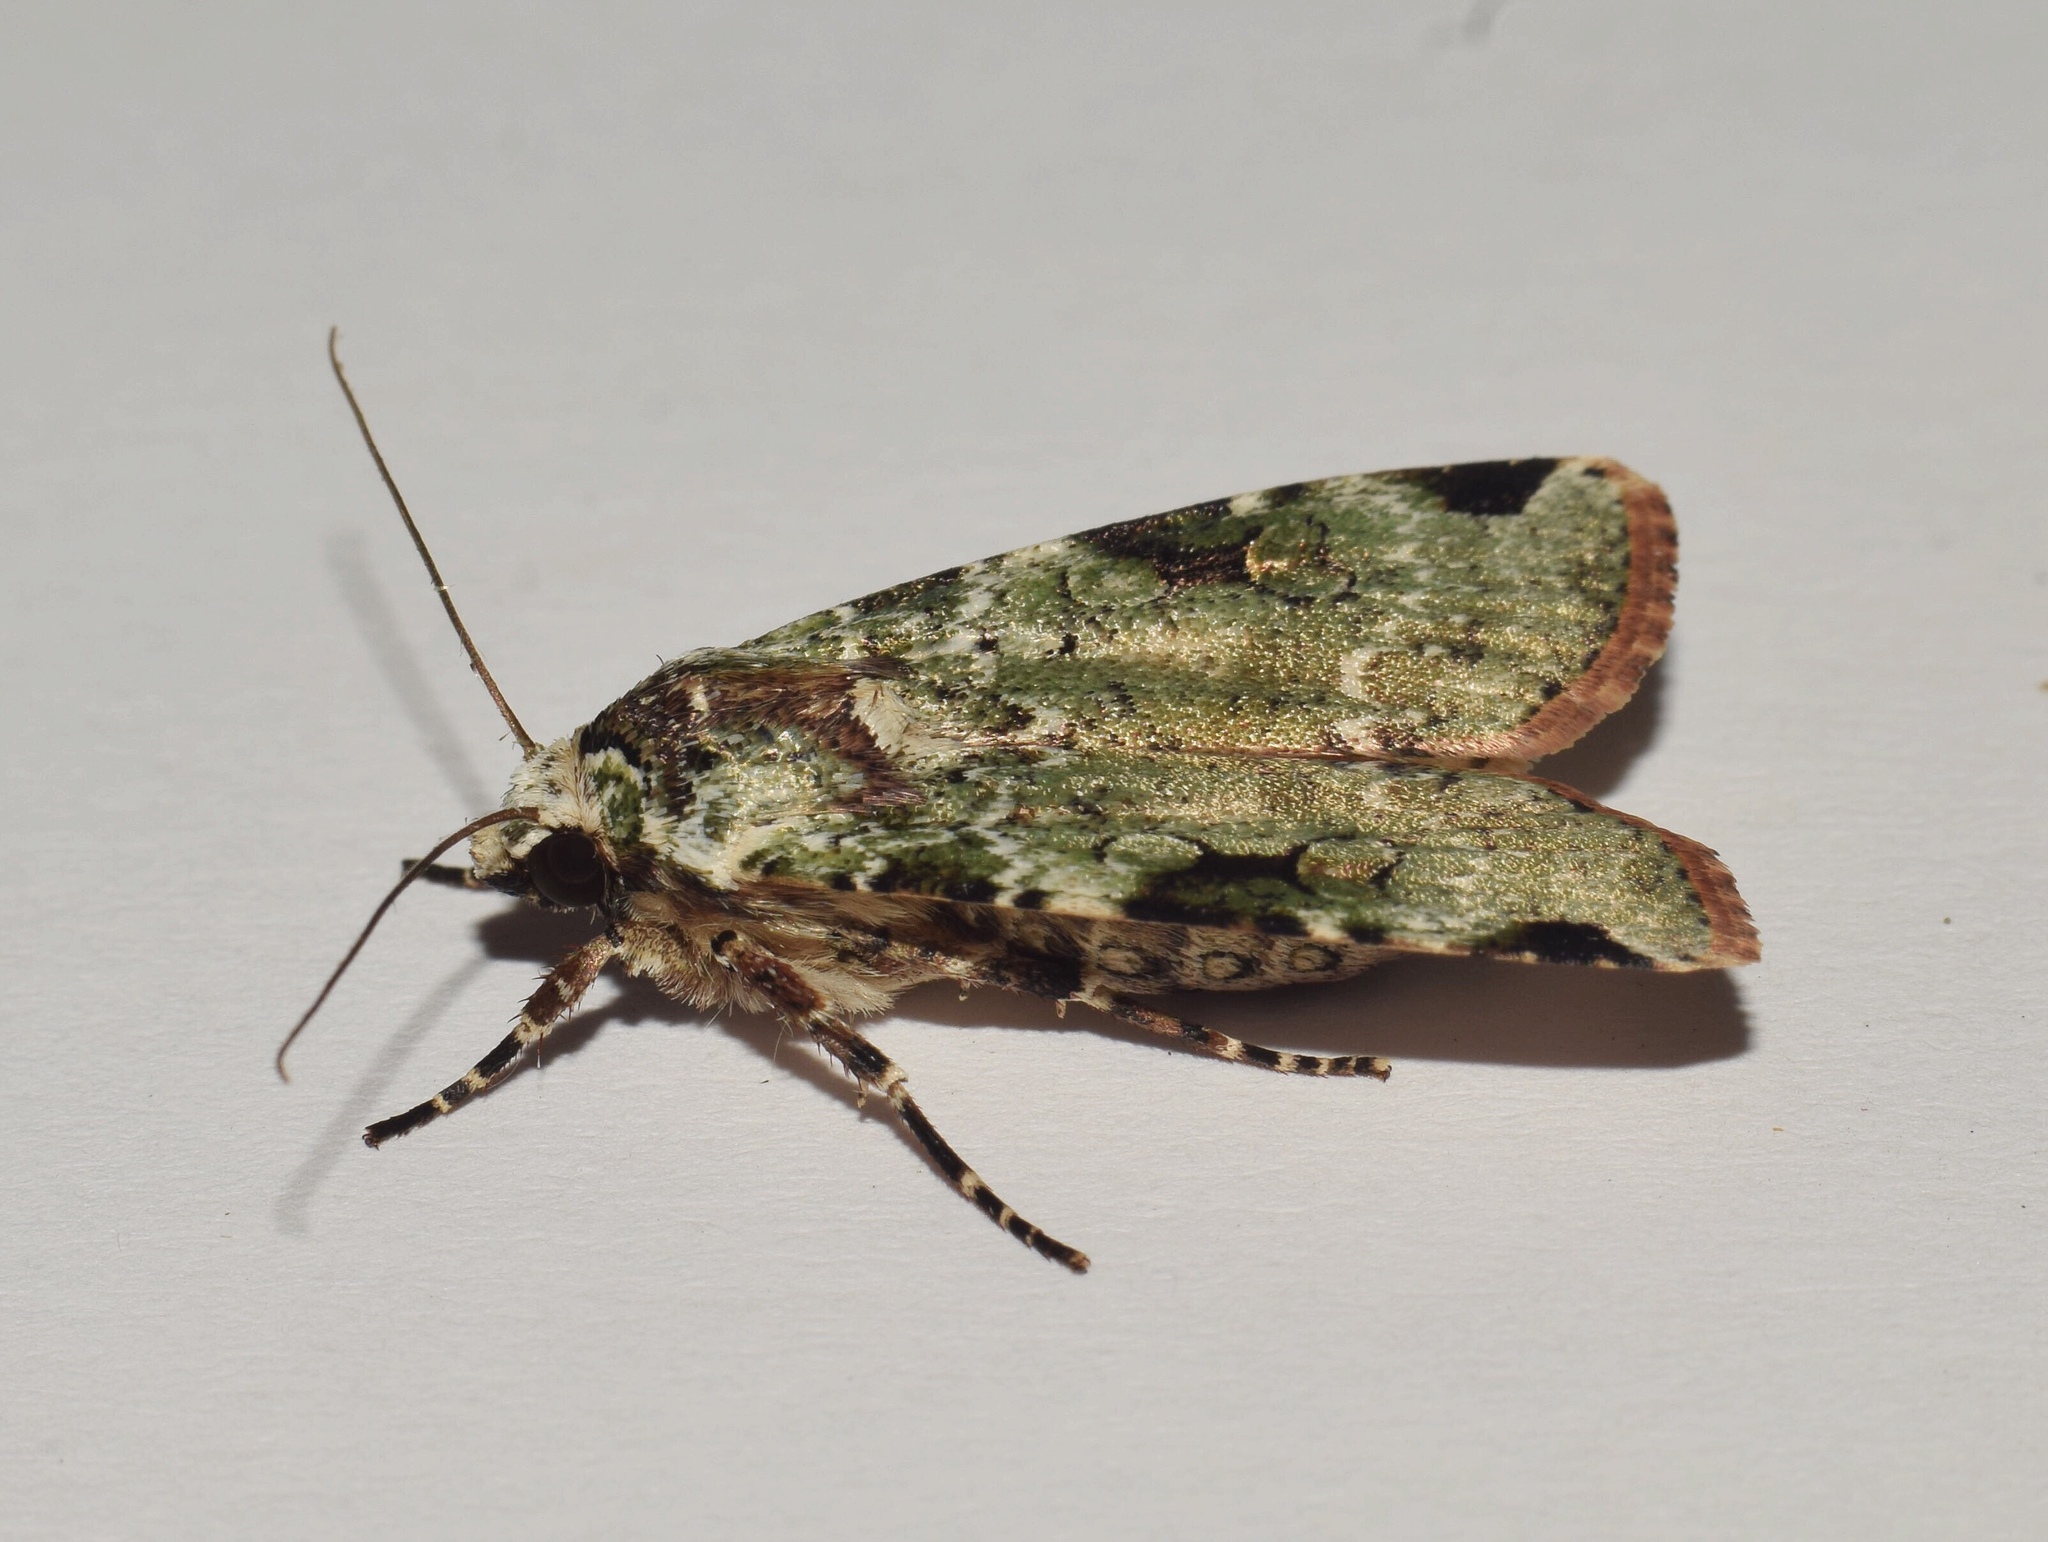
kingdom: Animalia
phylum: Arthropoda
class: Insecta
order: Lepidoptera
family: Noctuidae
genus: Mentaxya
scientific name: Mentaxya ignicollis
